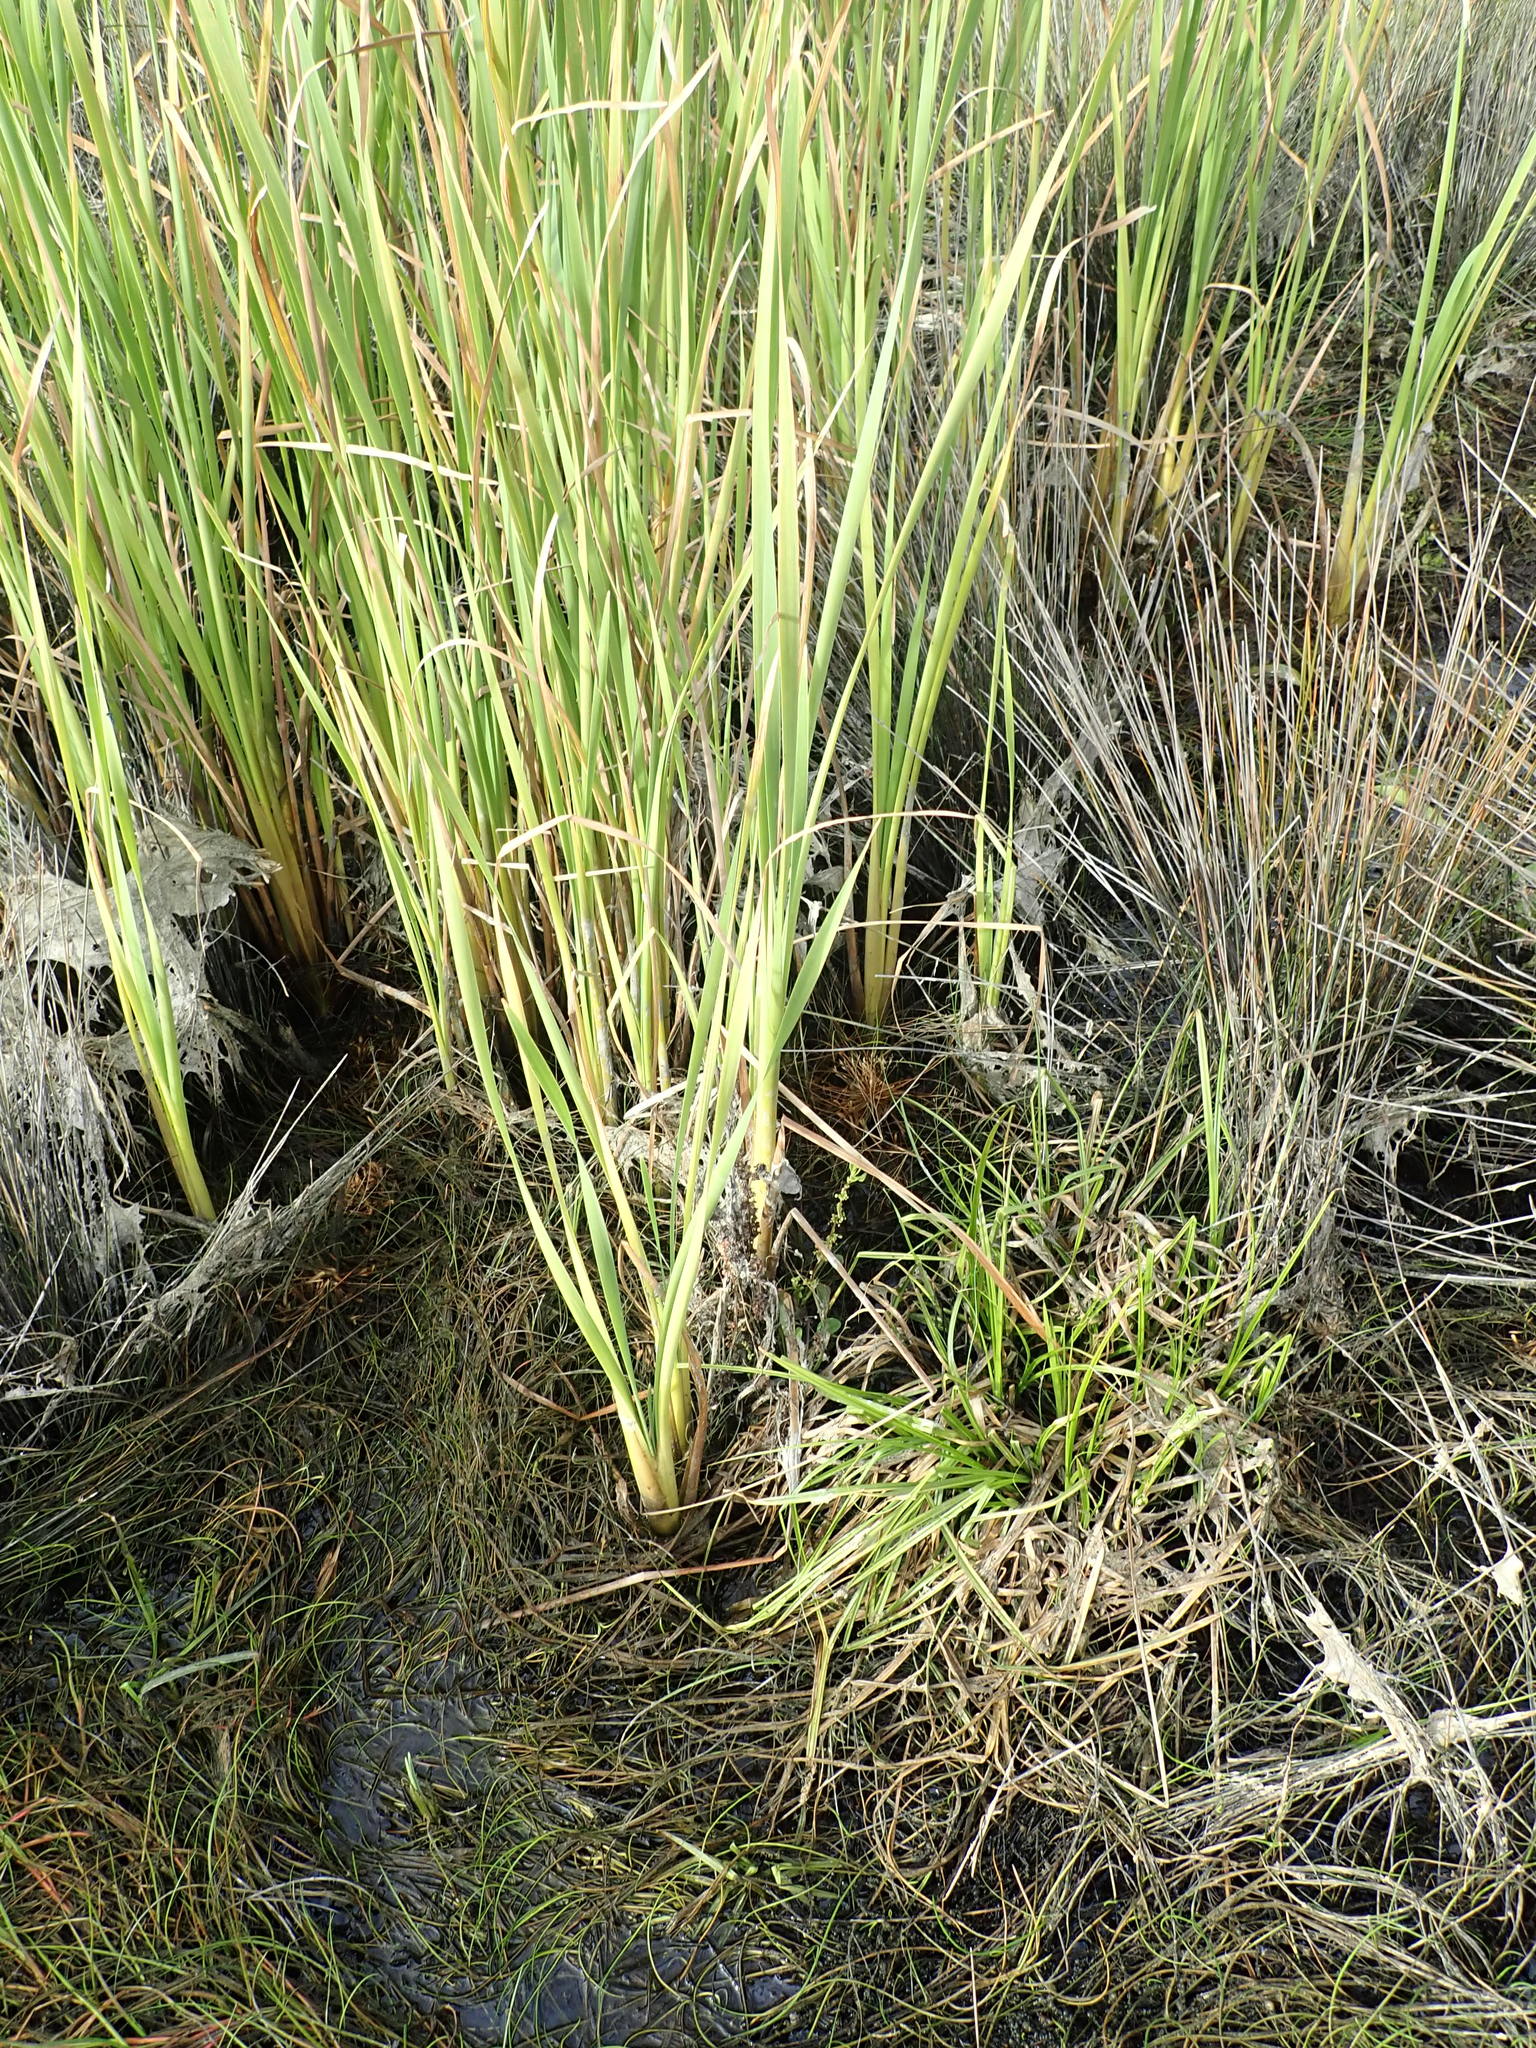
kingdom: Plantae
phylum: Tracheophyta
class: Liliopsida
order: Poales
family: Typhaceae
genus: Typha
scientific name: Typha orientalis
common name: Bullrush
